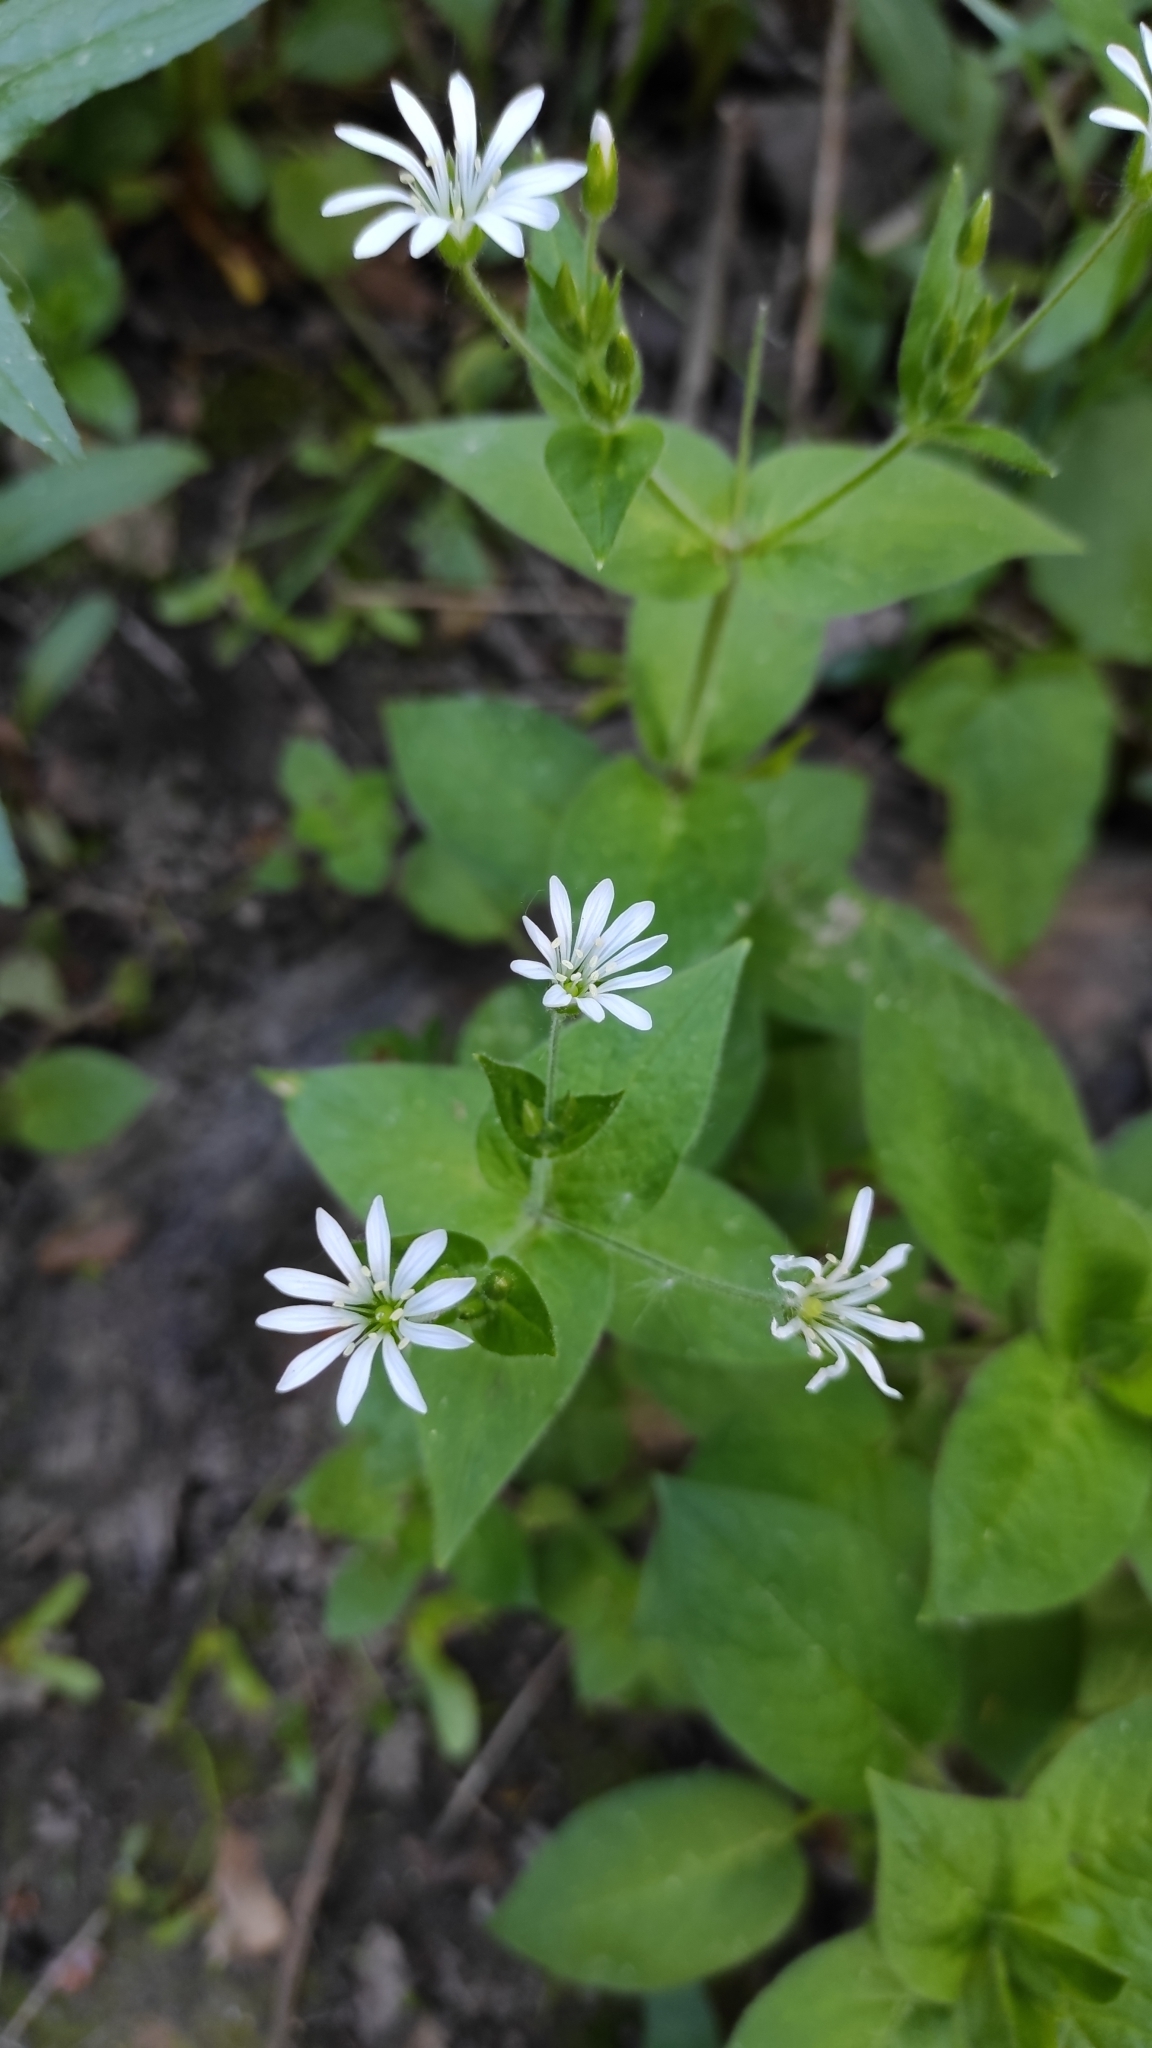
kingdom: Plantae
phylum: Tracheophyta
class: Magnoliopsida
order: Caryophyllales
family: Caryophyllaceae
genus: Stellaria
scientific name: Stellaria nemorum
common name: Wood stitchwort
